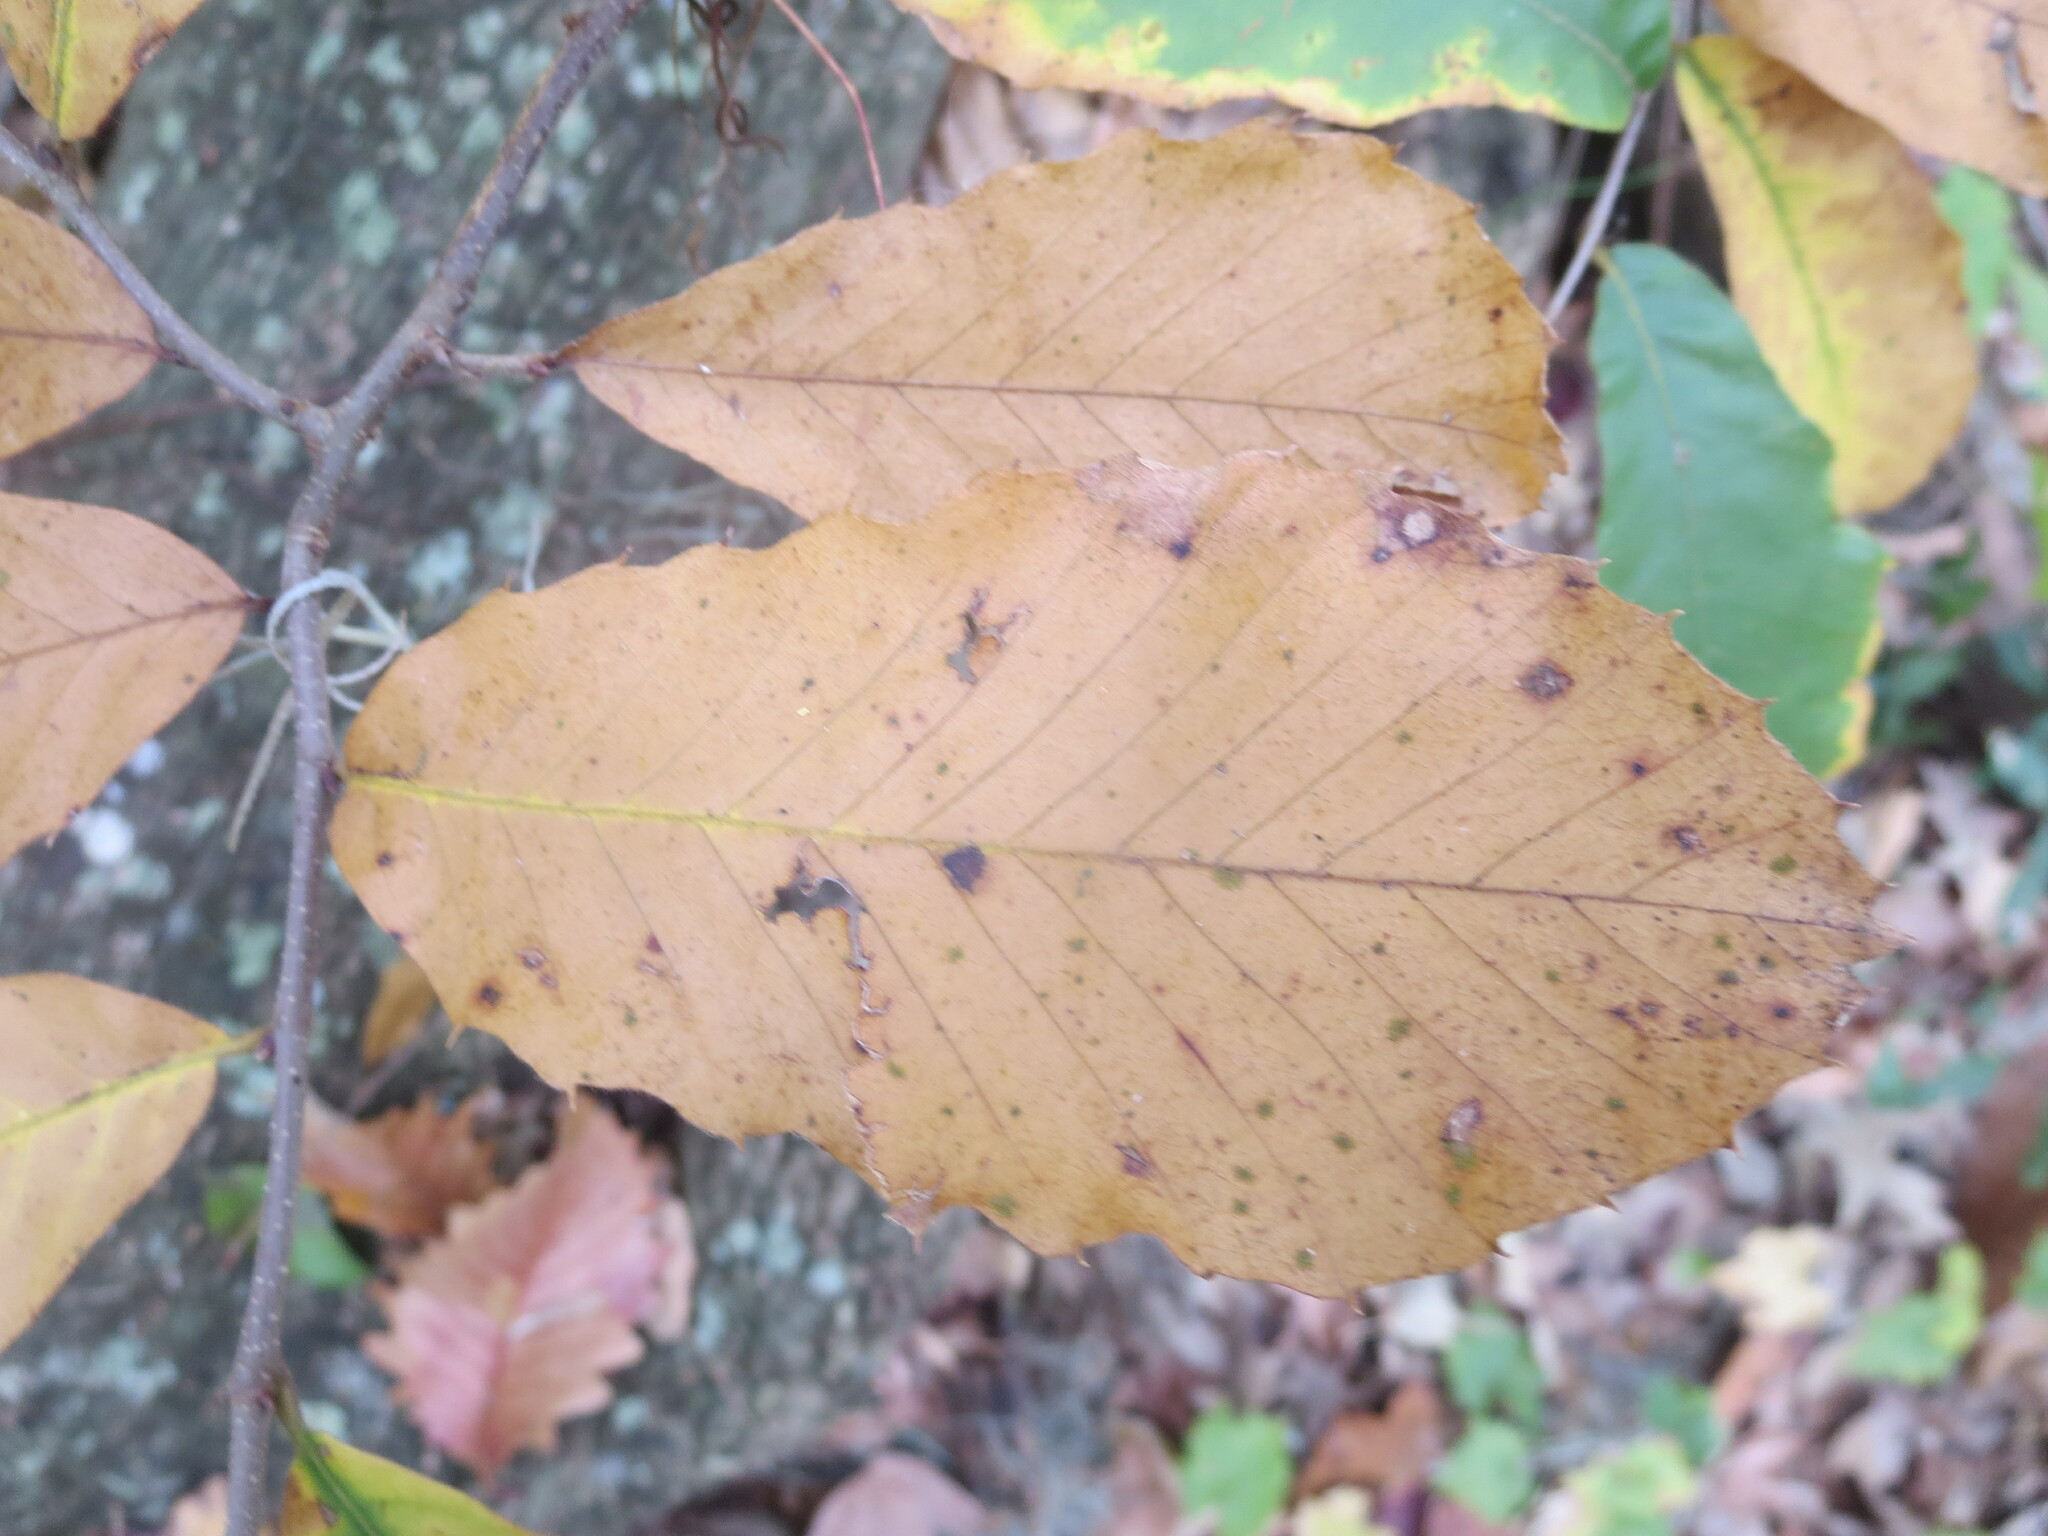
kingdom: Plantae
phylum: Tracheophyta
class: Magnoliopsida
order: Fagales
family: Fagaceae
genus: Castanea
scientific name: Castanea pumila
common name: Chinkapin
